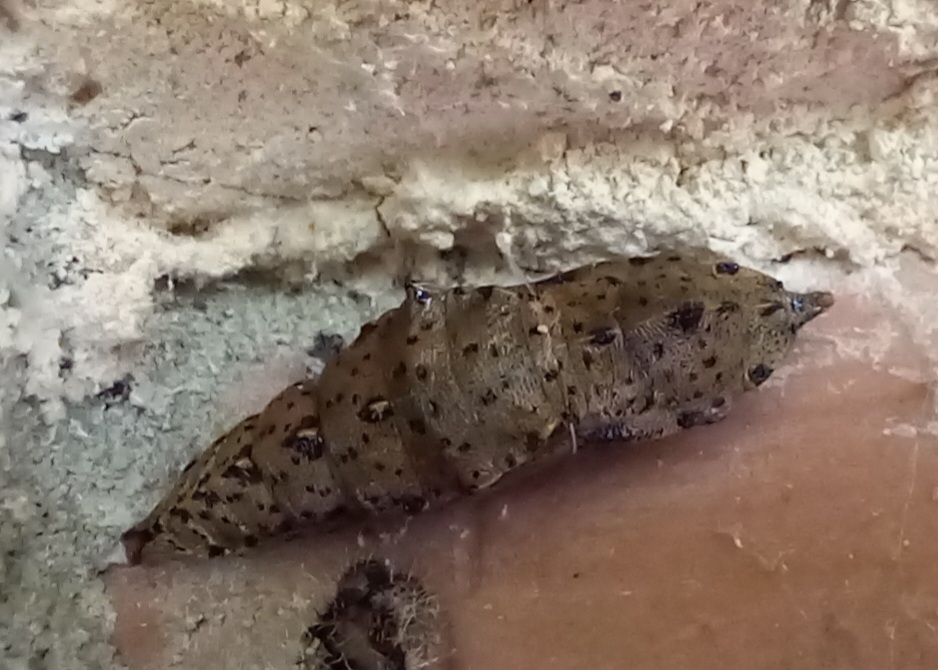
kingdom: Animalia
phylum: Arthropoda
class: Insecta
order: Lepidoptera
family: Pieridae
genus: Pieris
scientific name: Pieris brassicae
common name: Large white
